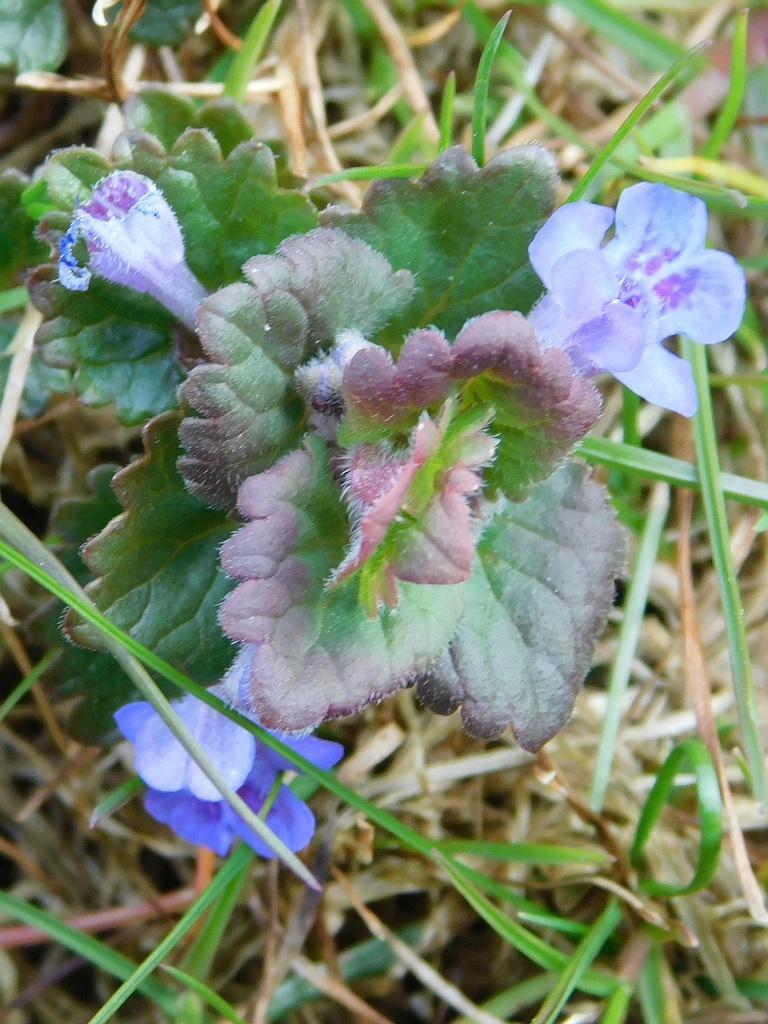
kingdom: Plantae
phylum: Tracheophyta
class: Magnoliopsida
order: Lamiales
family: Lamiaceae
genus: Glechoma
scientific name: Glechoma hederacea
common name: Ground ivy
